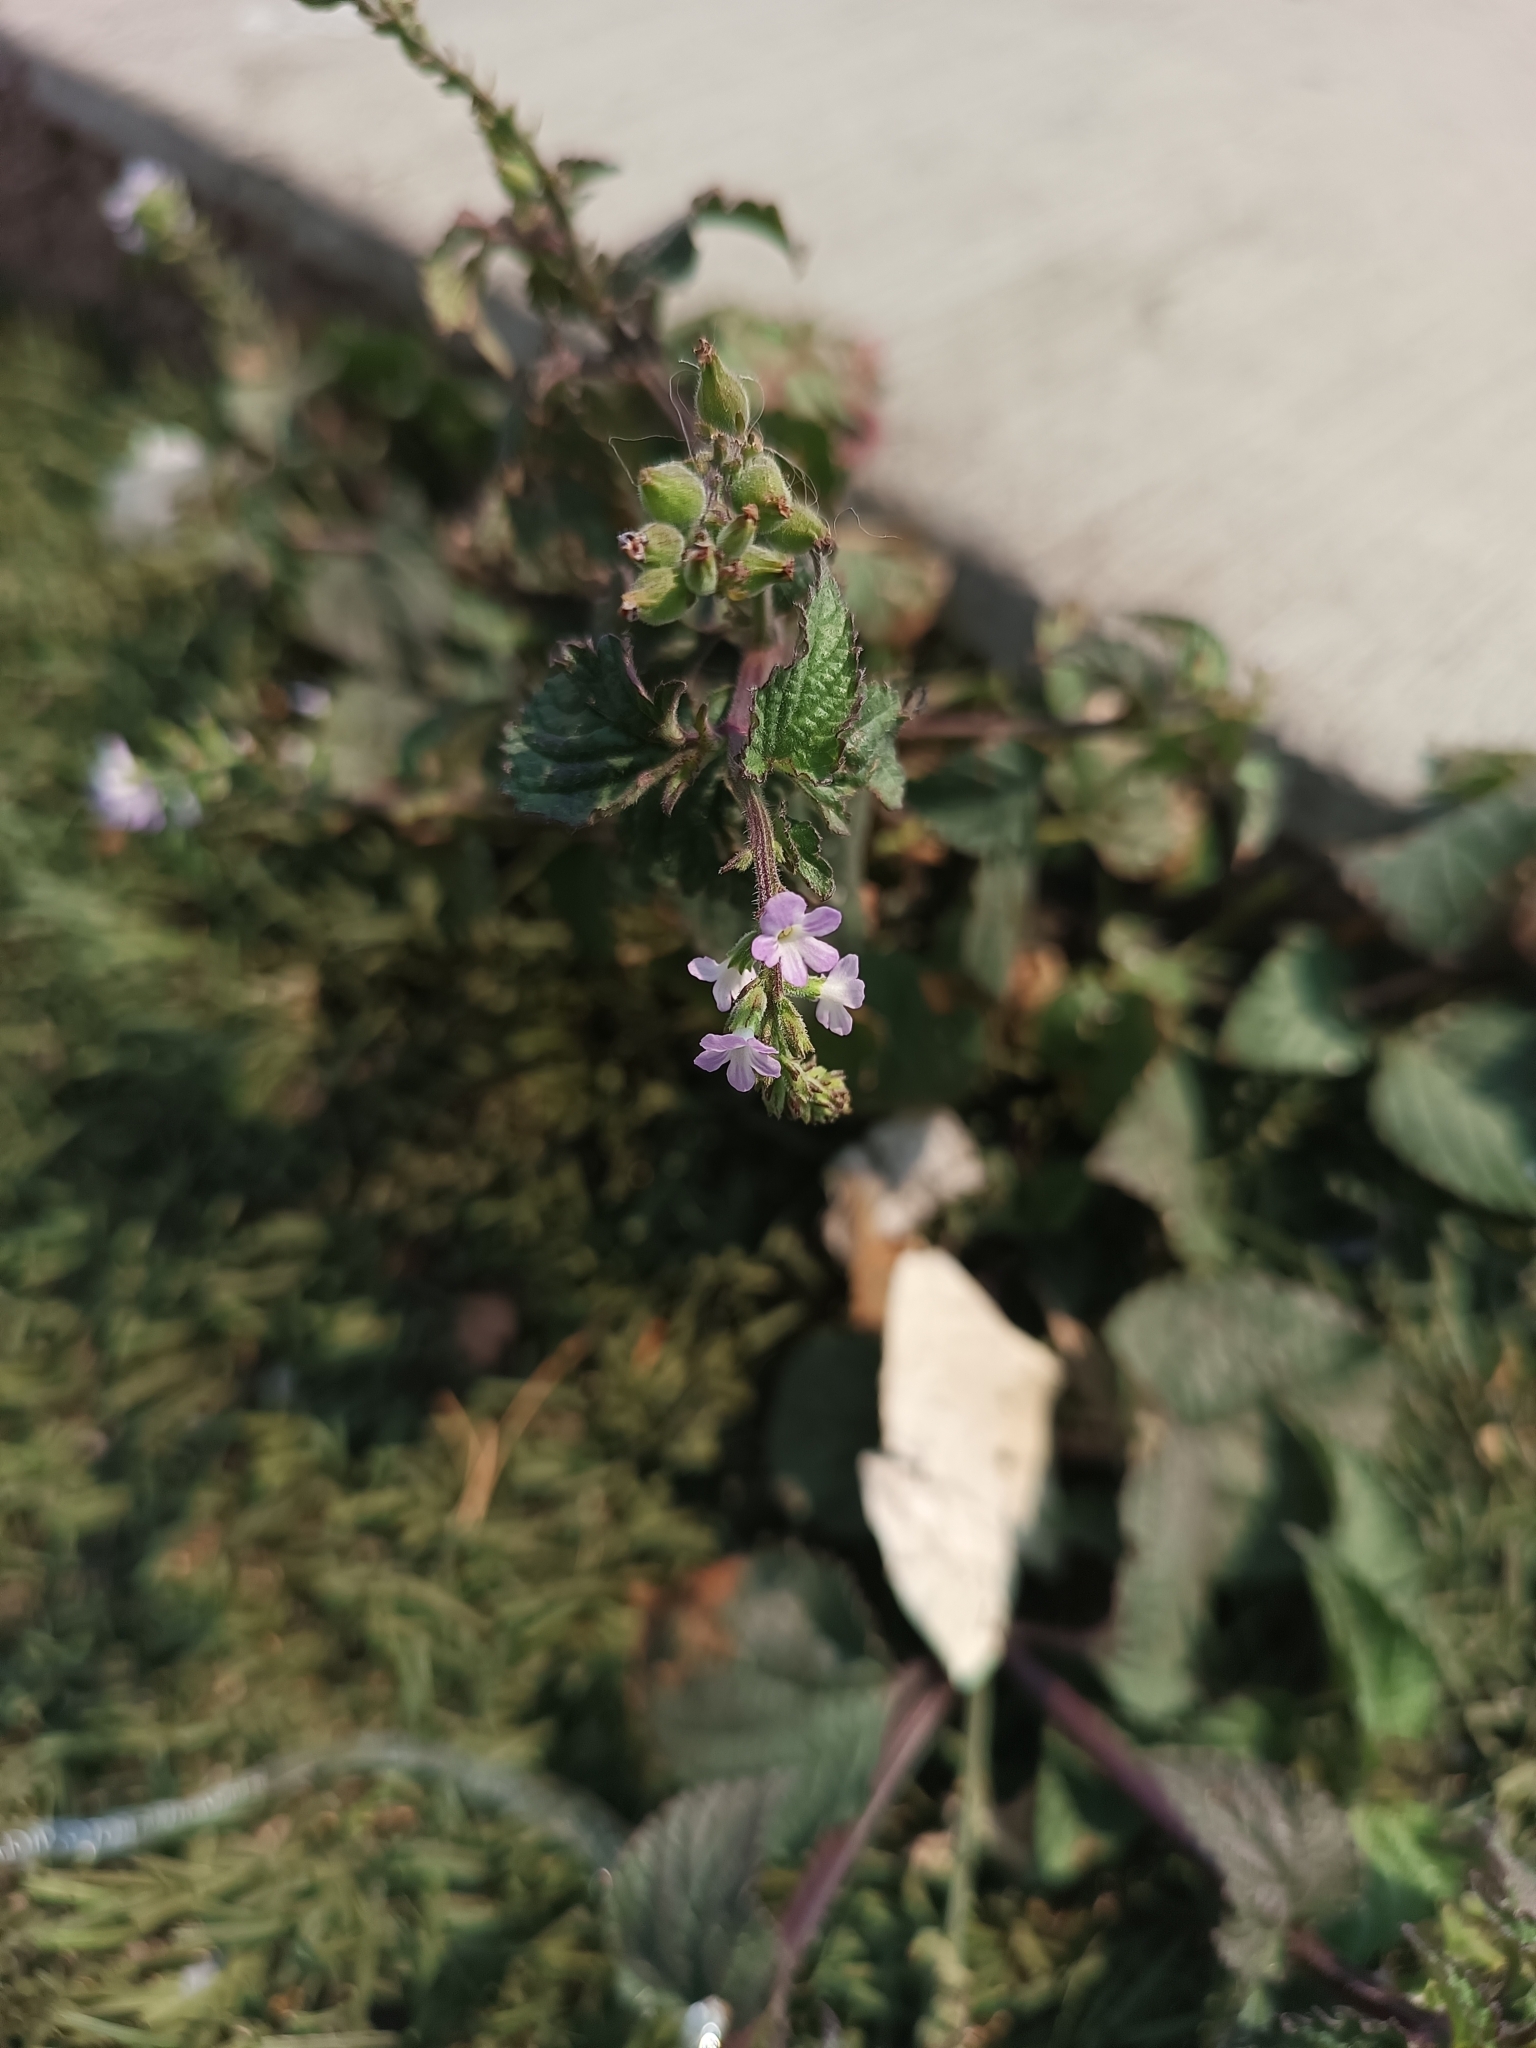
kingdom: Plantae
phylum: Tracheophyta
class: Magnoliopsida
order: Lamiales
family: Verbenaceae
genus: Priva
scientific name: Priva lappulacea
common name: Fasten-'pon-coat
